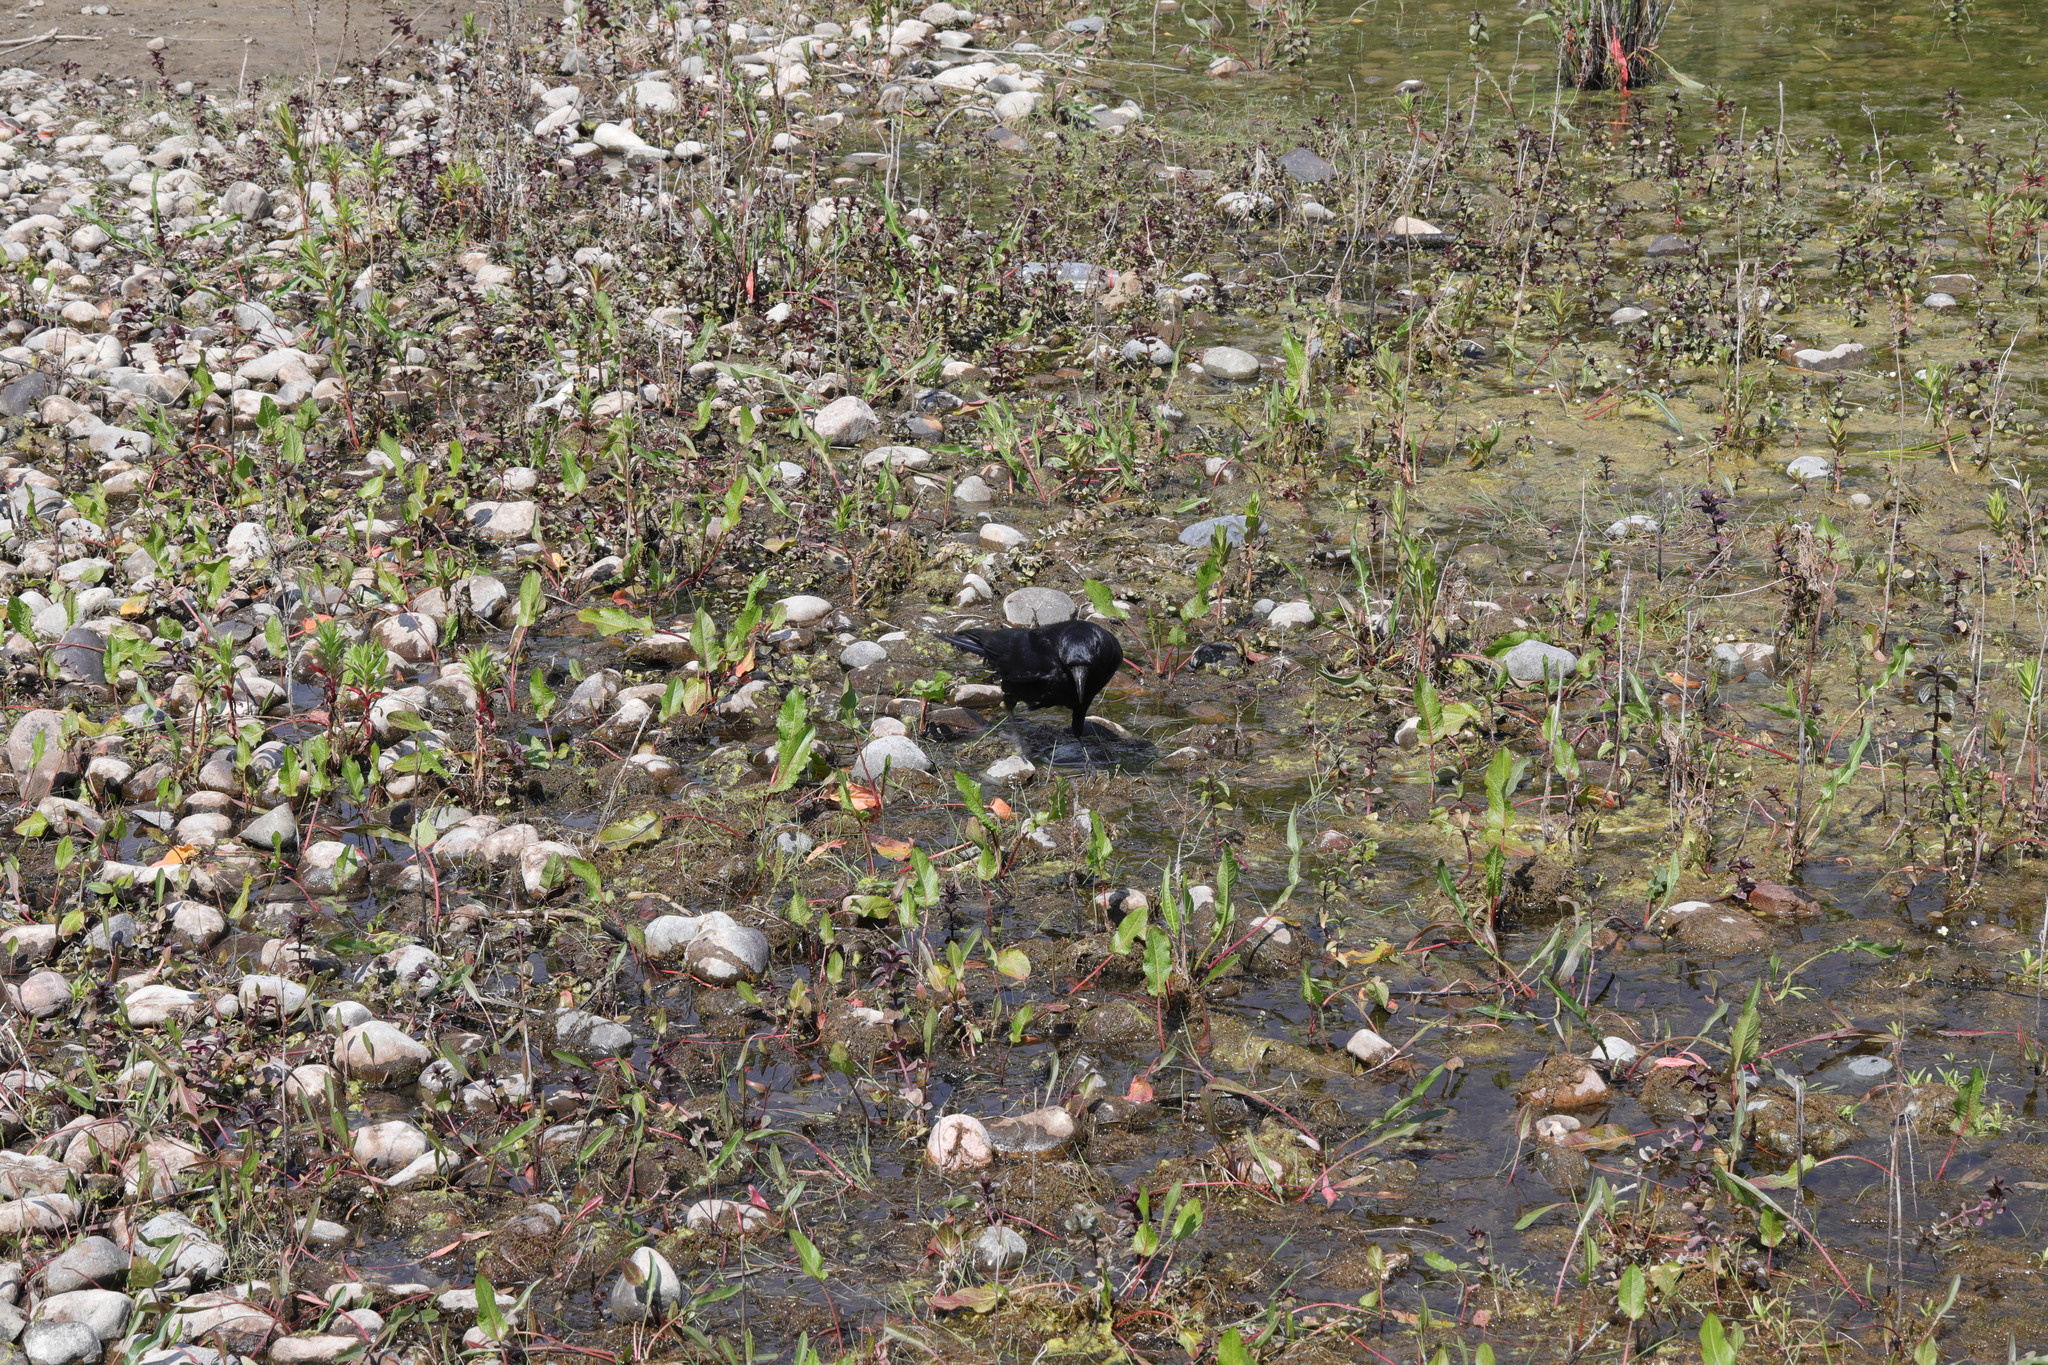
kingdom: Animalia
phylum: Chordata
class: Aves
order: Passeriformes
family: Corvidae
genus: Corvus
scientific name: Corvus corone
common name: Carrion crow
